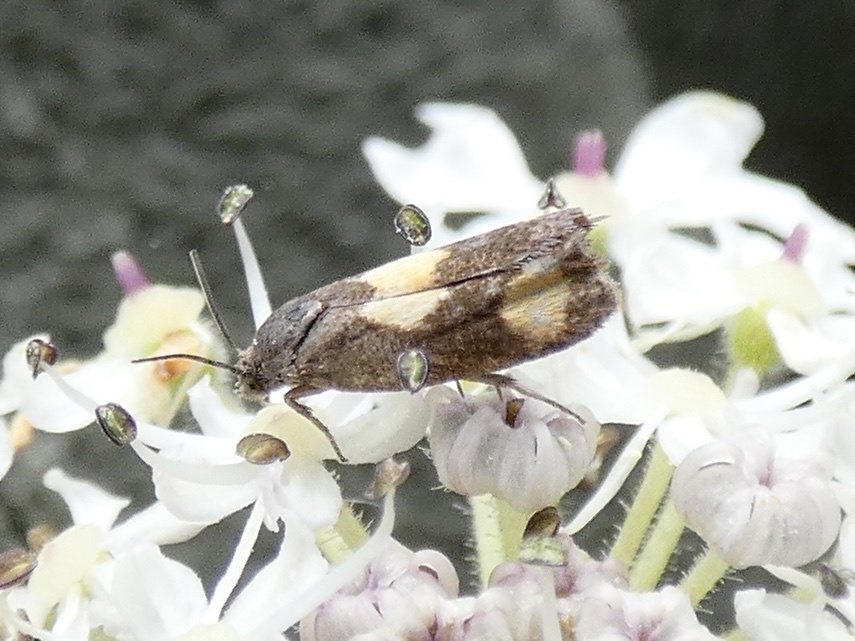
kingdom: Animalia
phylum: Arthropoda
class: Insecta
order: Lepidoptera
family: Tortricidae
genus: Pammene
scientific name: Pammene aurana
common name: Orange-spot piercer
